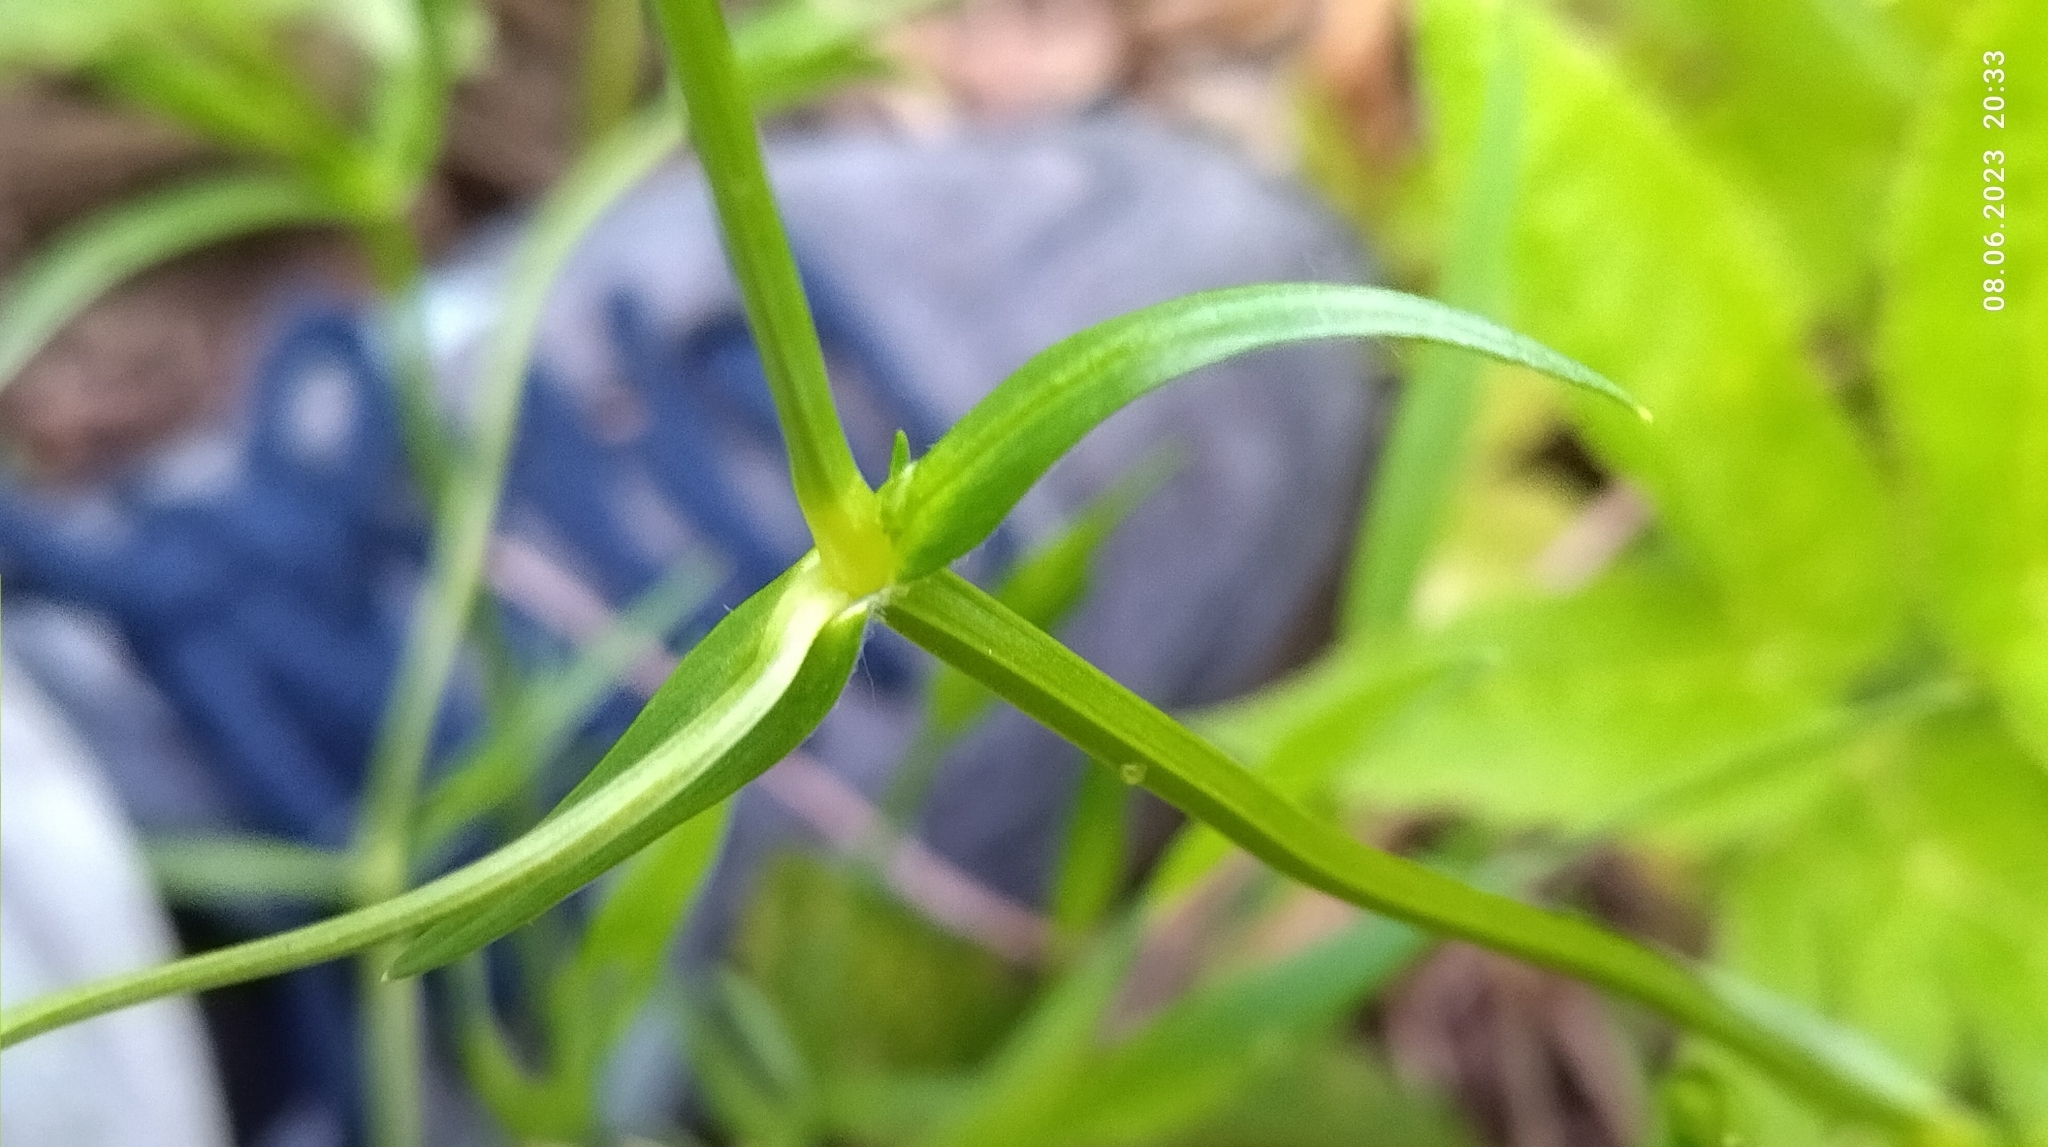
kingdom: Plantae
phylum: Tracheophyta
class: Magnoliopsida
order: Caryophyllales
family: Caryophyllaceae
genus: Stellaria
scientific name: Stellaria graminea
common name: Grass-like starwort
